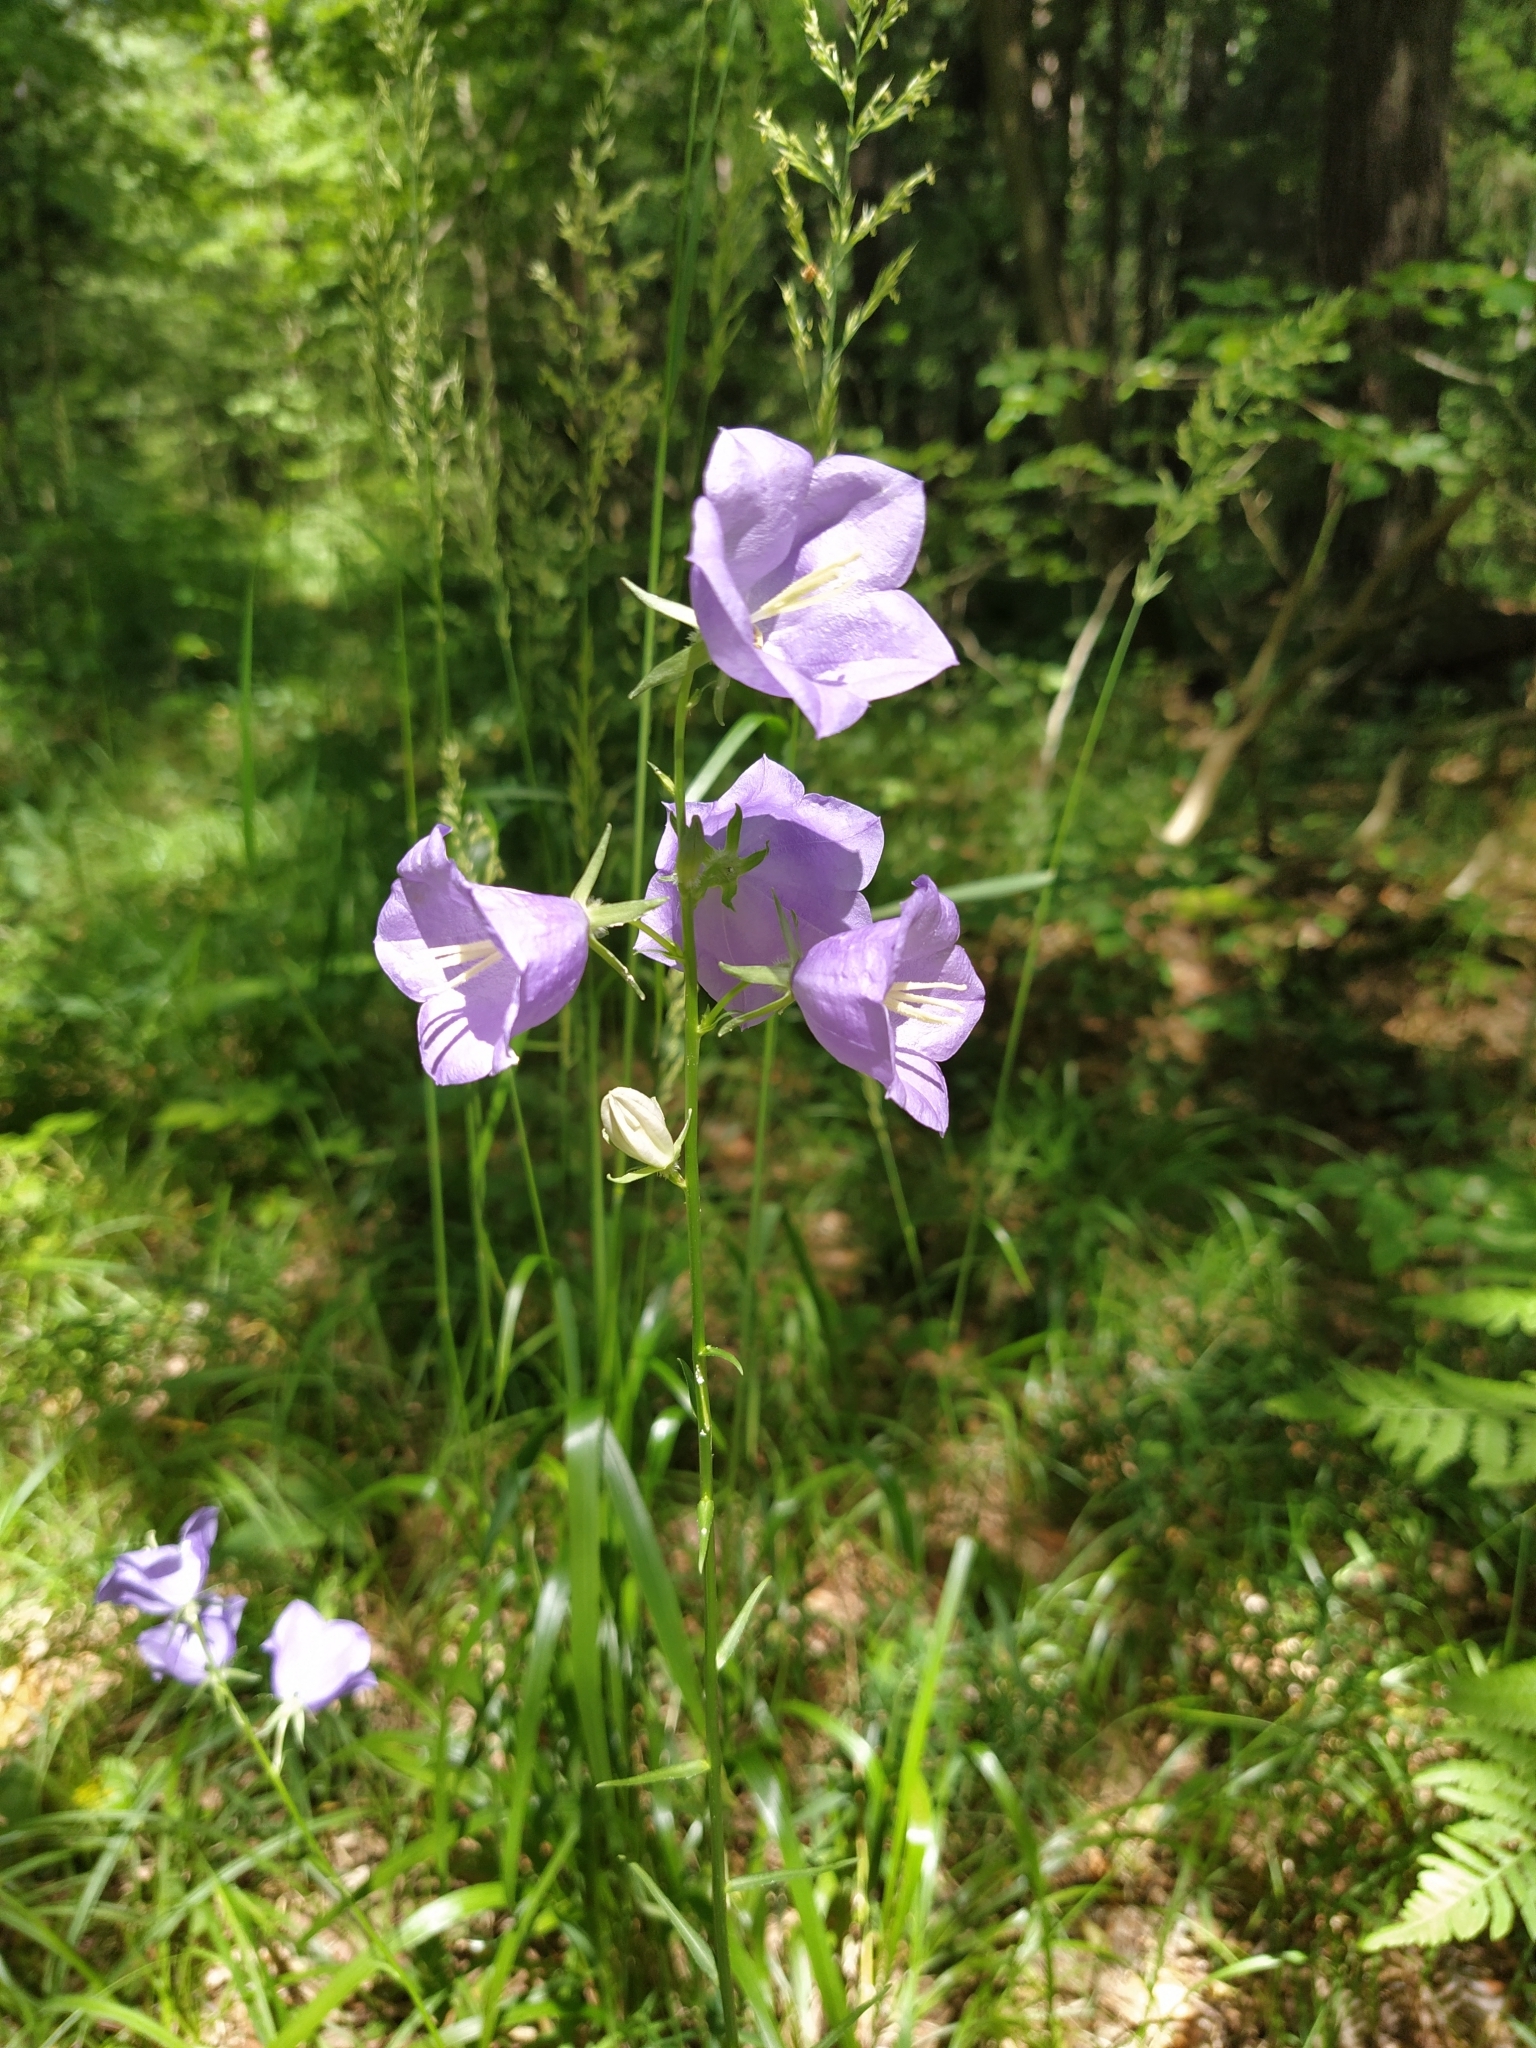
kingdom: Plantae
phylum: Tracheophyta
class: Magnoliopsida
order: Asterales
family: Campanulaceae
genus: Campanula
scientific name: Campanula persicifolia
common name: Peach-leaved bellflower
